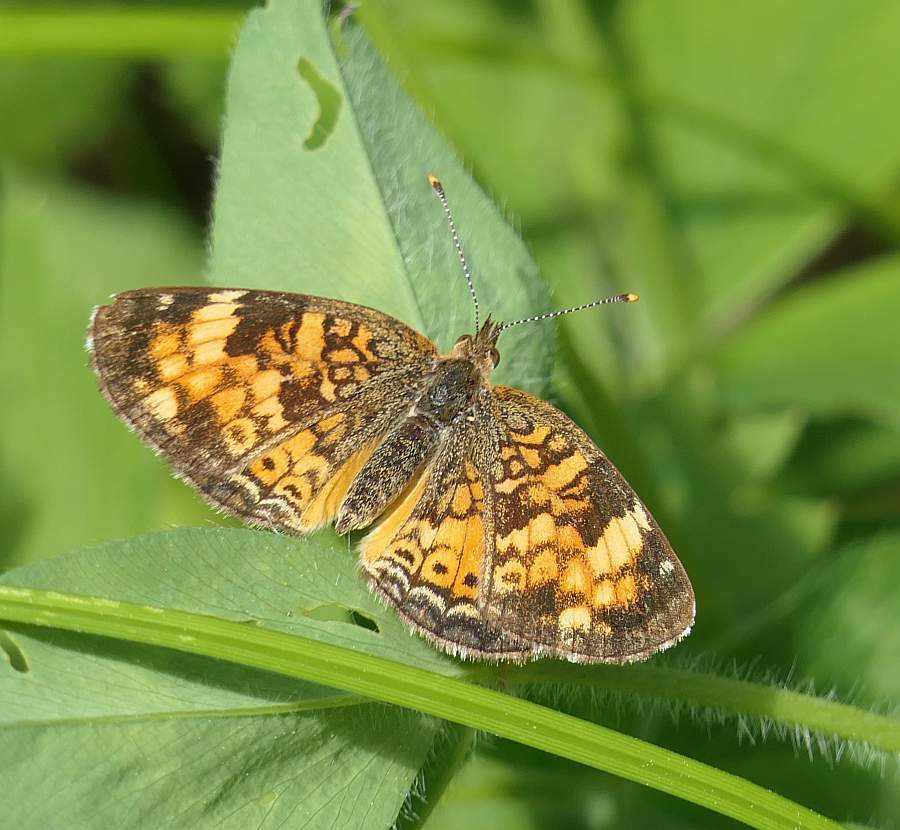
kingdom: Animalia
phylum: Arthropoda
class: Insecta
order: Lepidoptera
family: Nymphalidae
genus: Phyciodes
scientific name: Phyciodes tharos
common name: Pearl crescent
